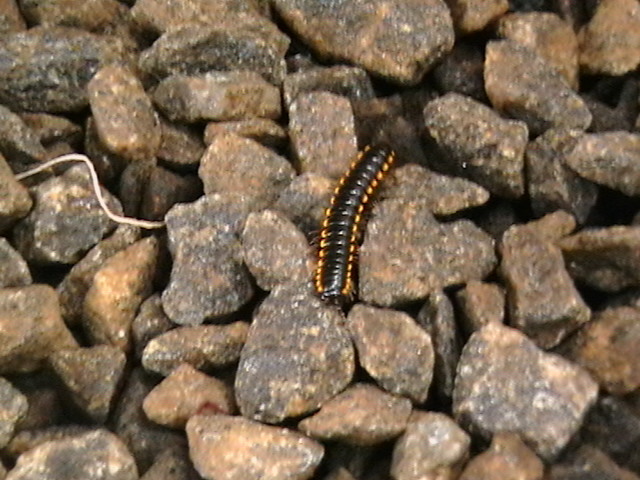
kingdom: Animalia
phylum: Arthropoda
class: Diplopoda
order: Polydesmida
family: Paradoxosomatidae
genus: Orthomorpha
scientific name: Orthomorpha coarctata
